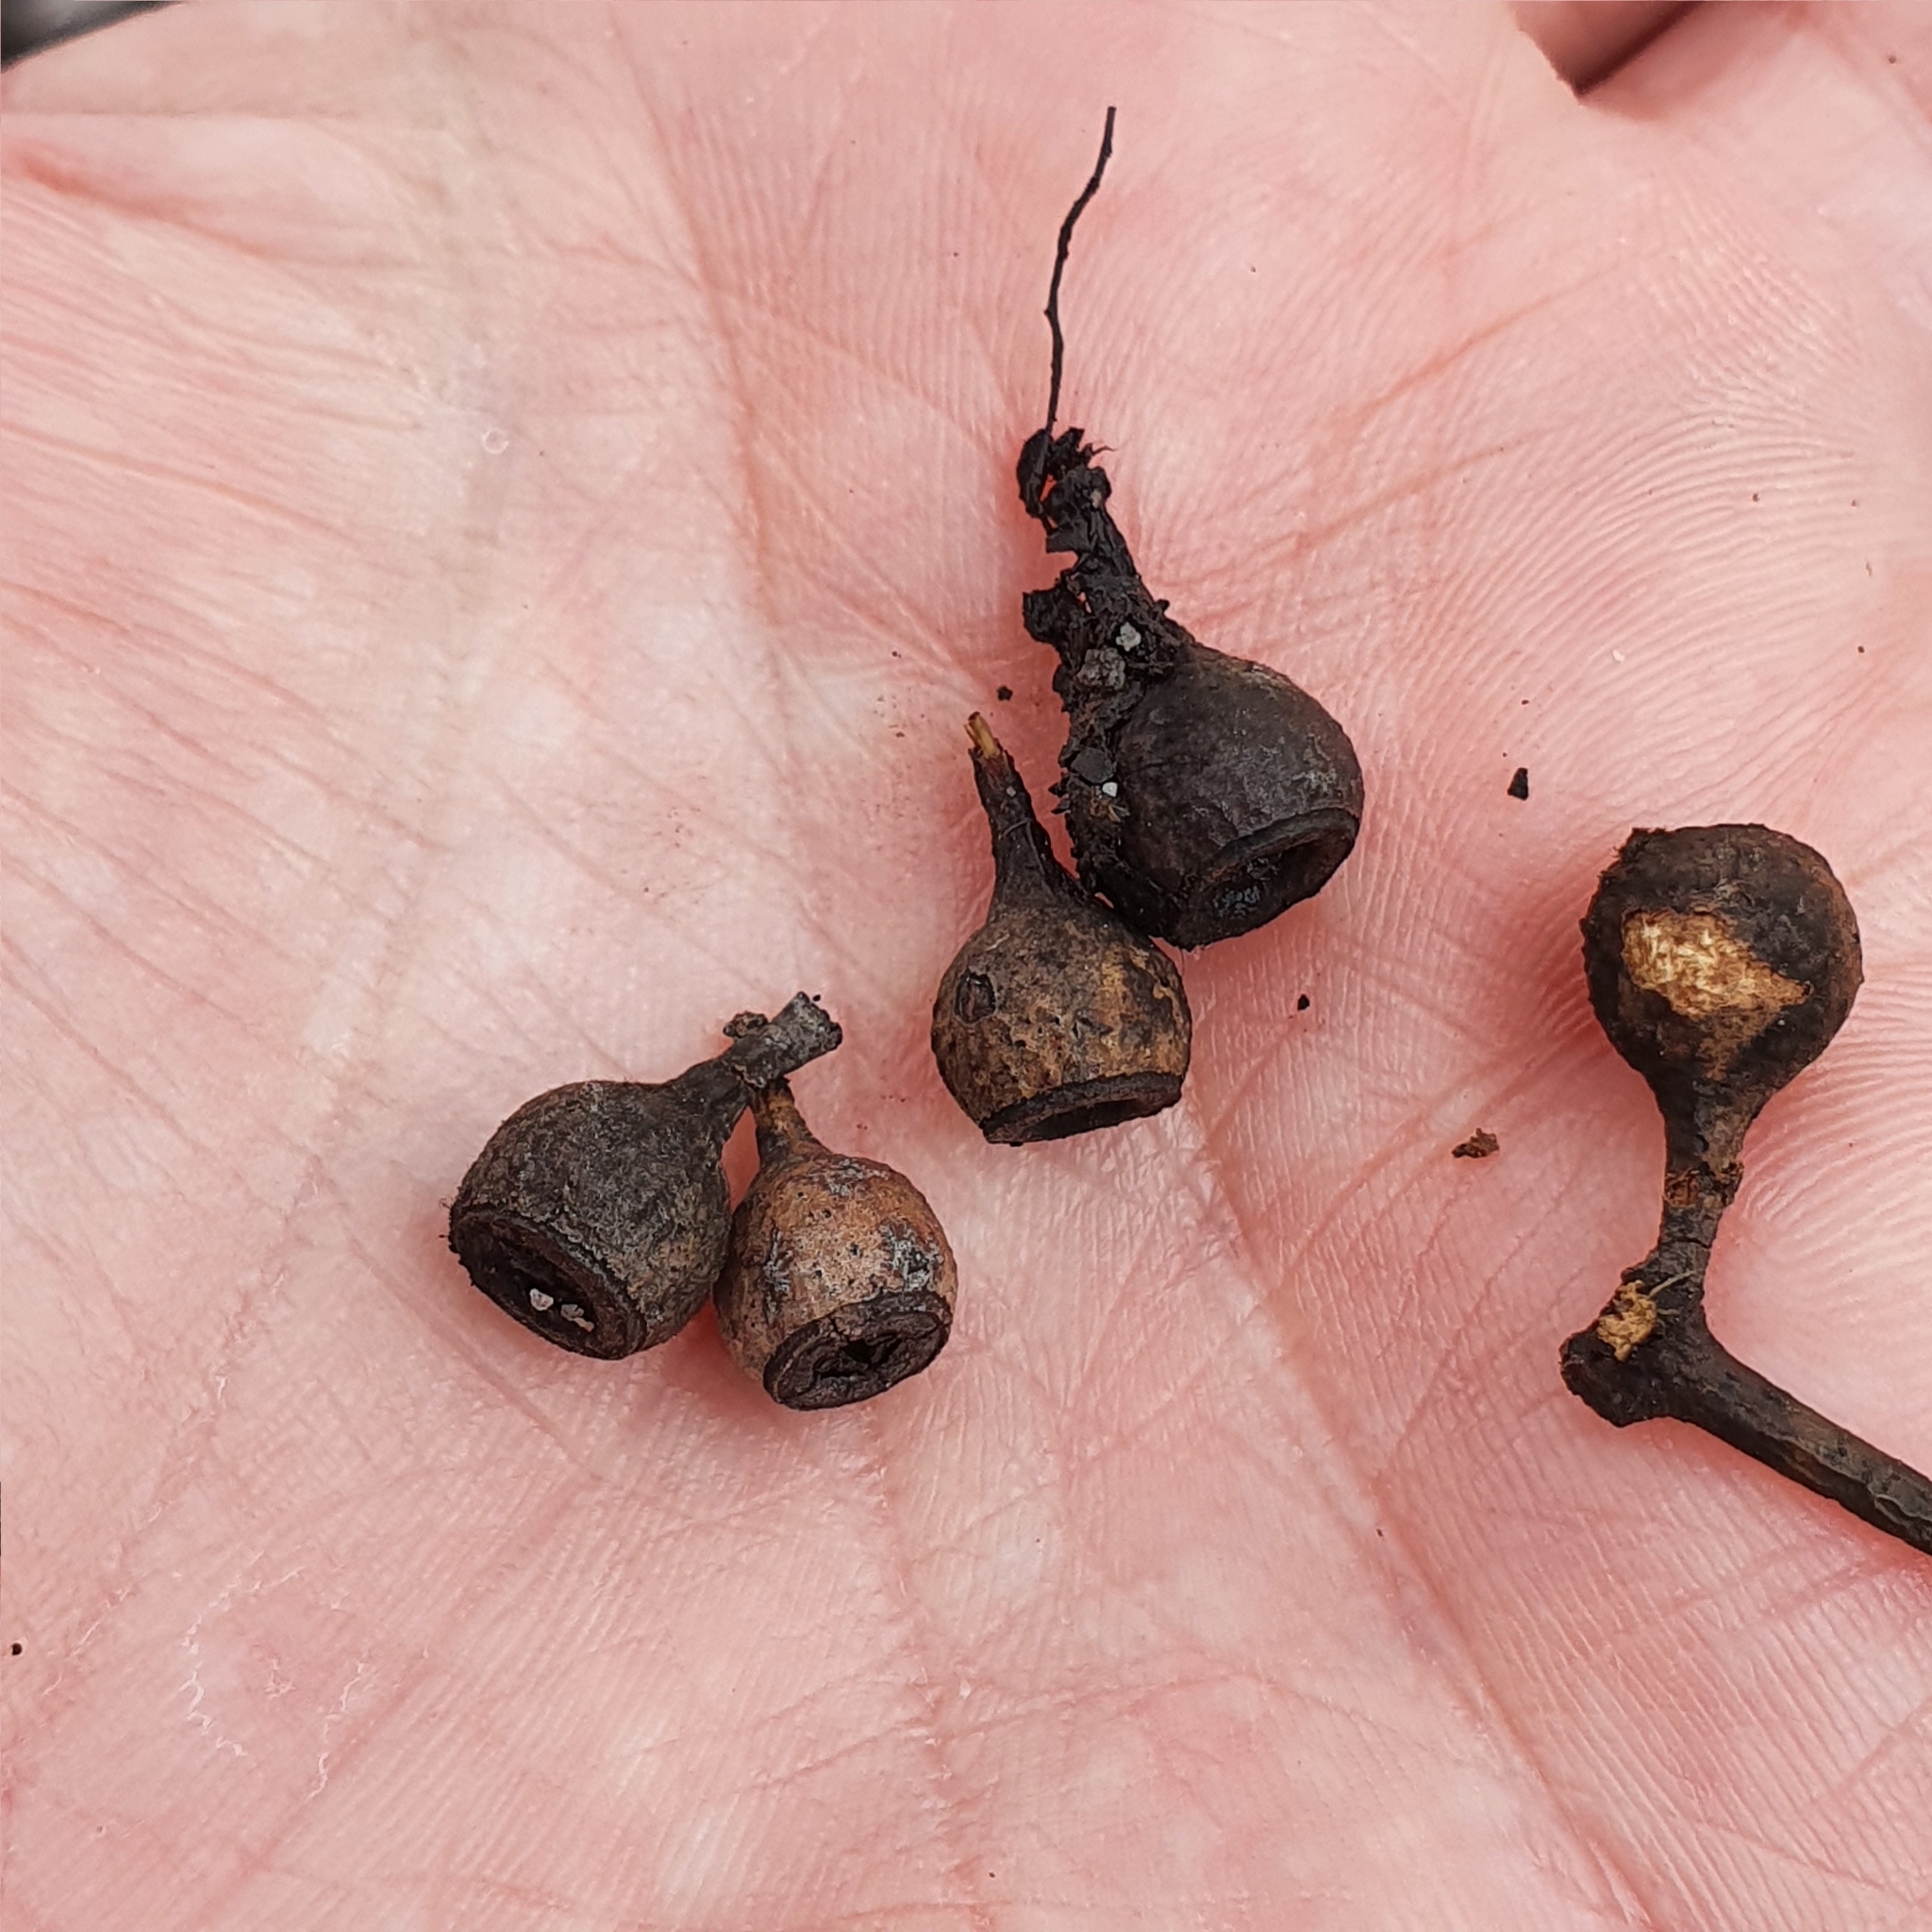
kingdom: Plantae
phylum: Tracheophyta
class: Magnoliopsida
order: Myrtales
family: Myrtaceae
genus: Eucalyptus
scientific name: Eucalyptus haemastoma
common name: Scribbly-gum
